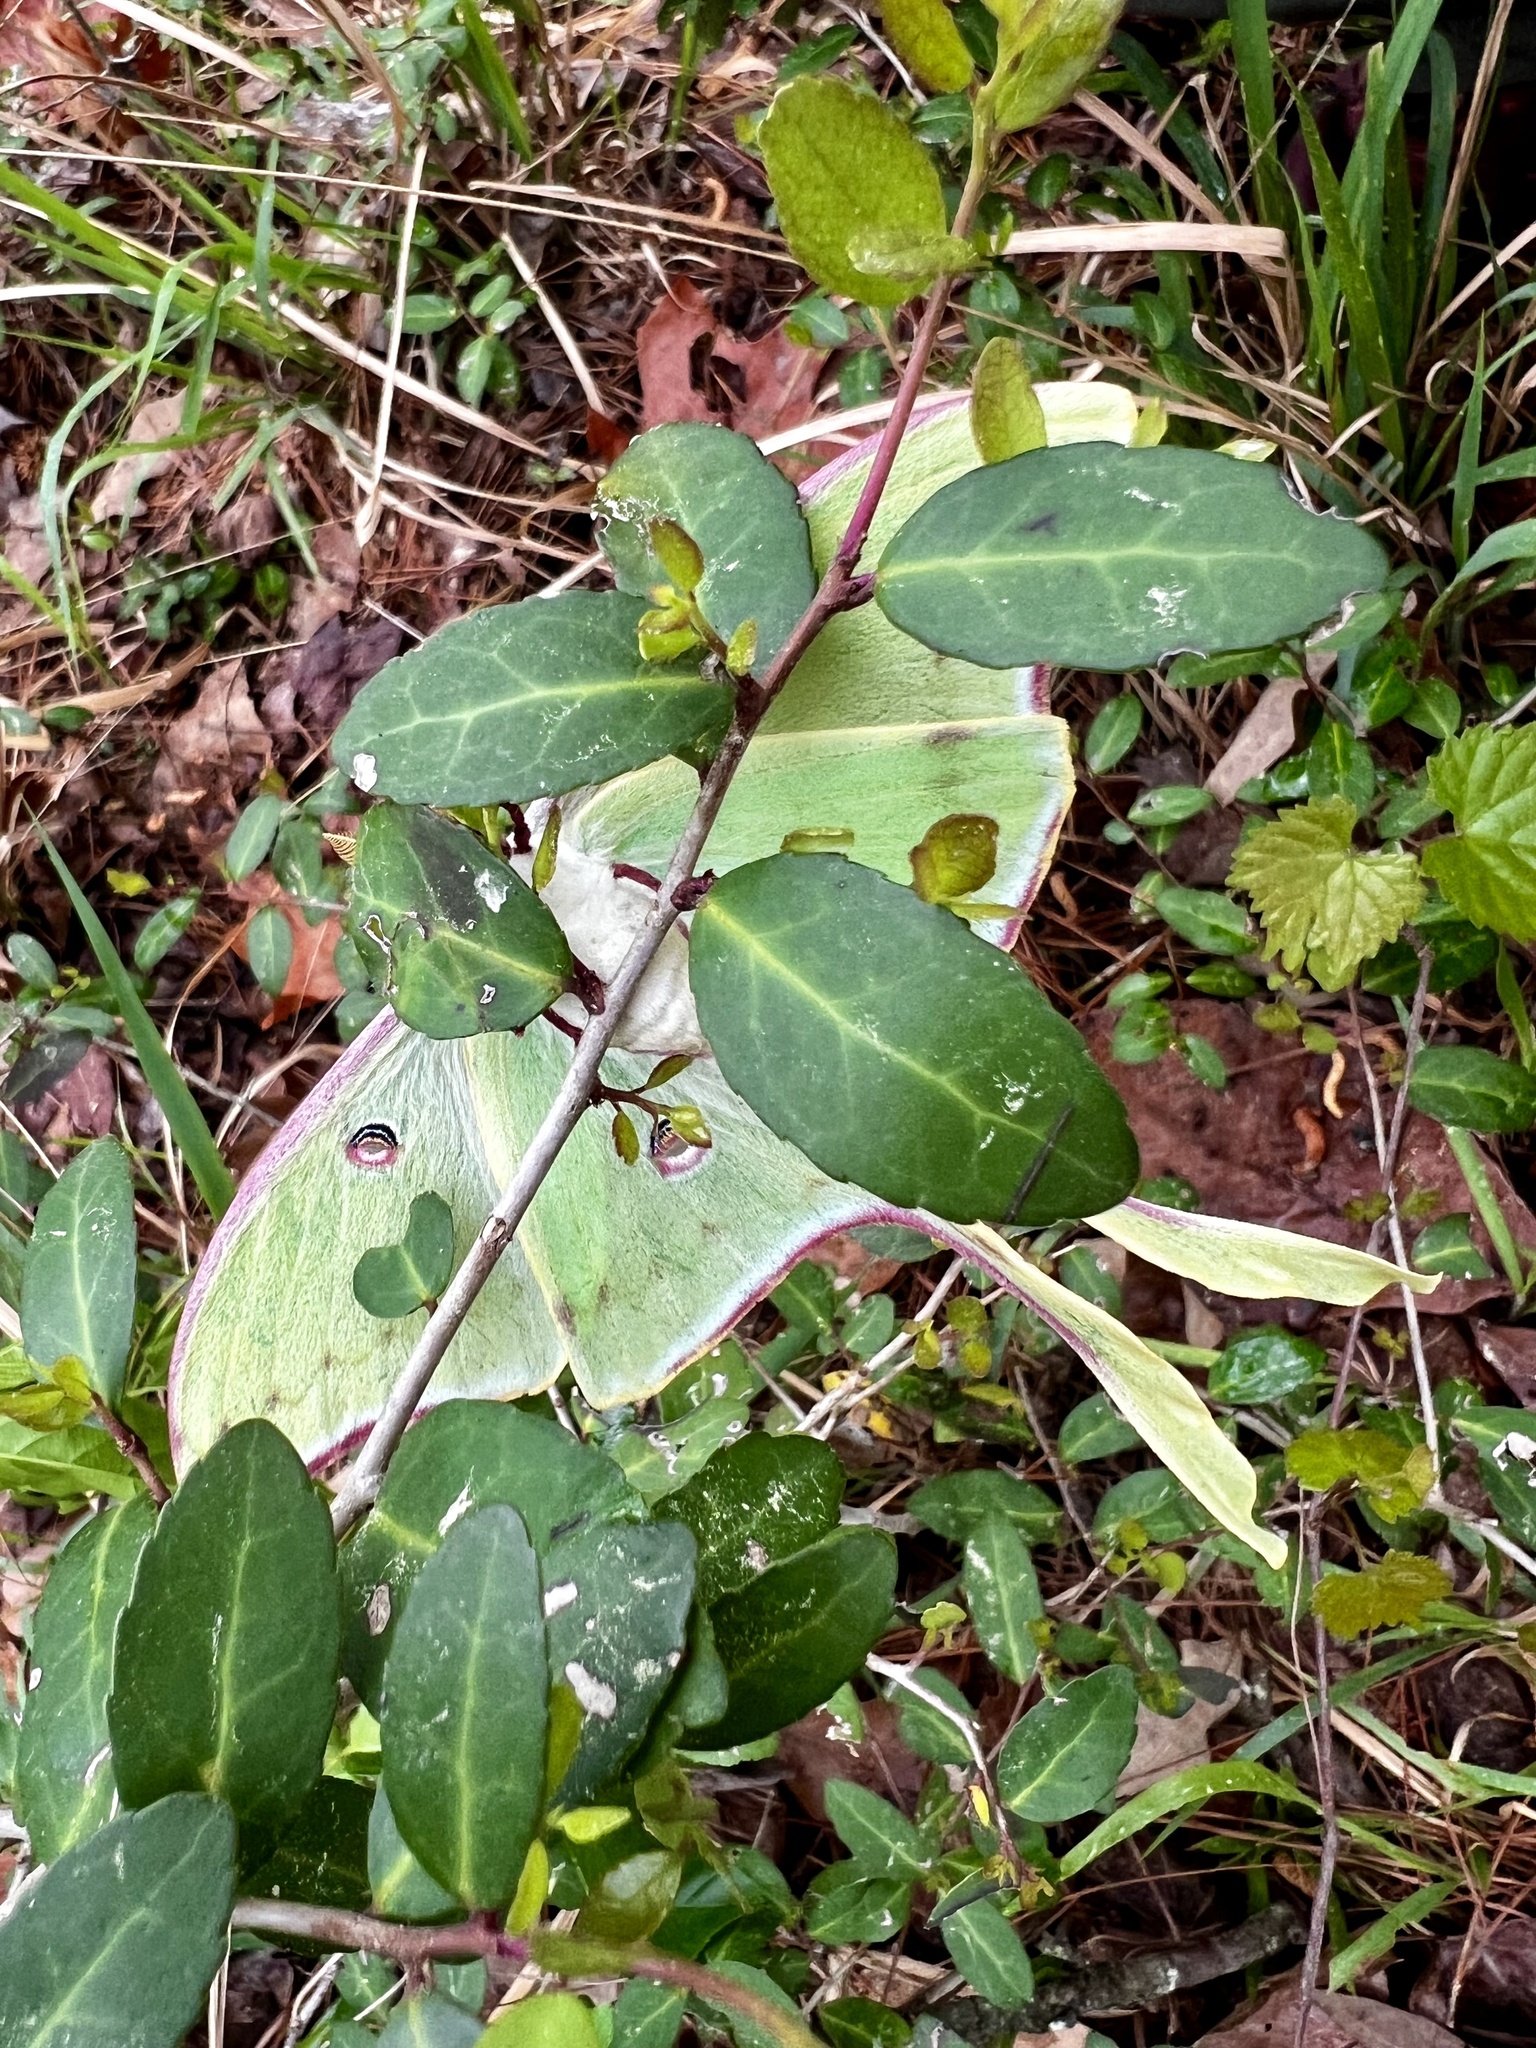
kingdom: Animalia
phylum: Arthropoda
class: Insecta
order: Lepidoptera
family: Saturniidae
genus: Actias
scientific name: Actias luna
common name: Luna moth
